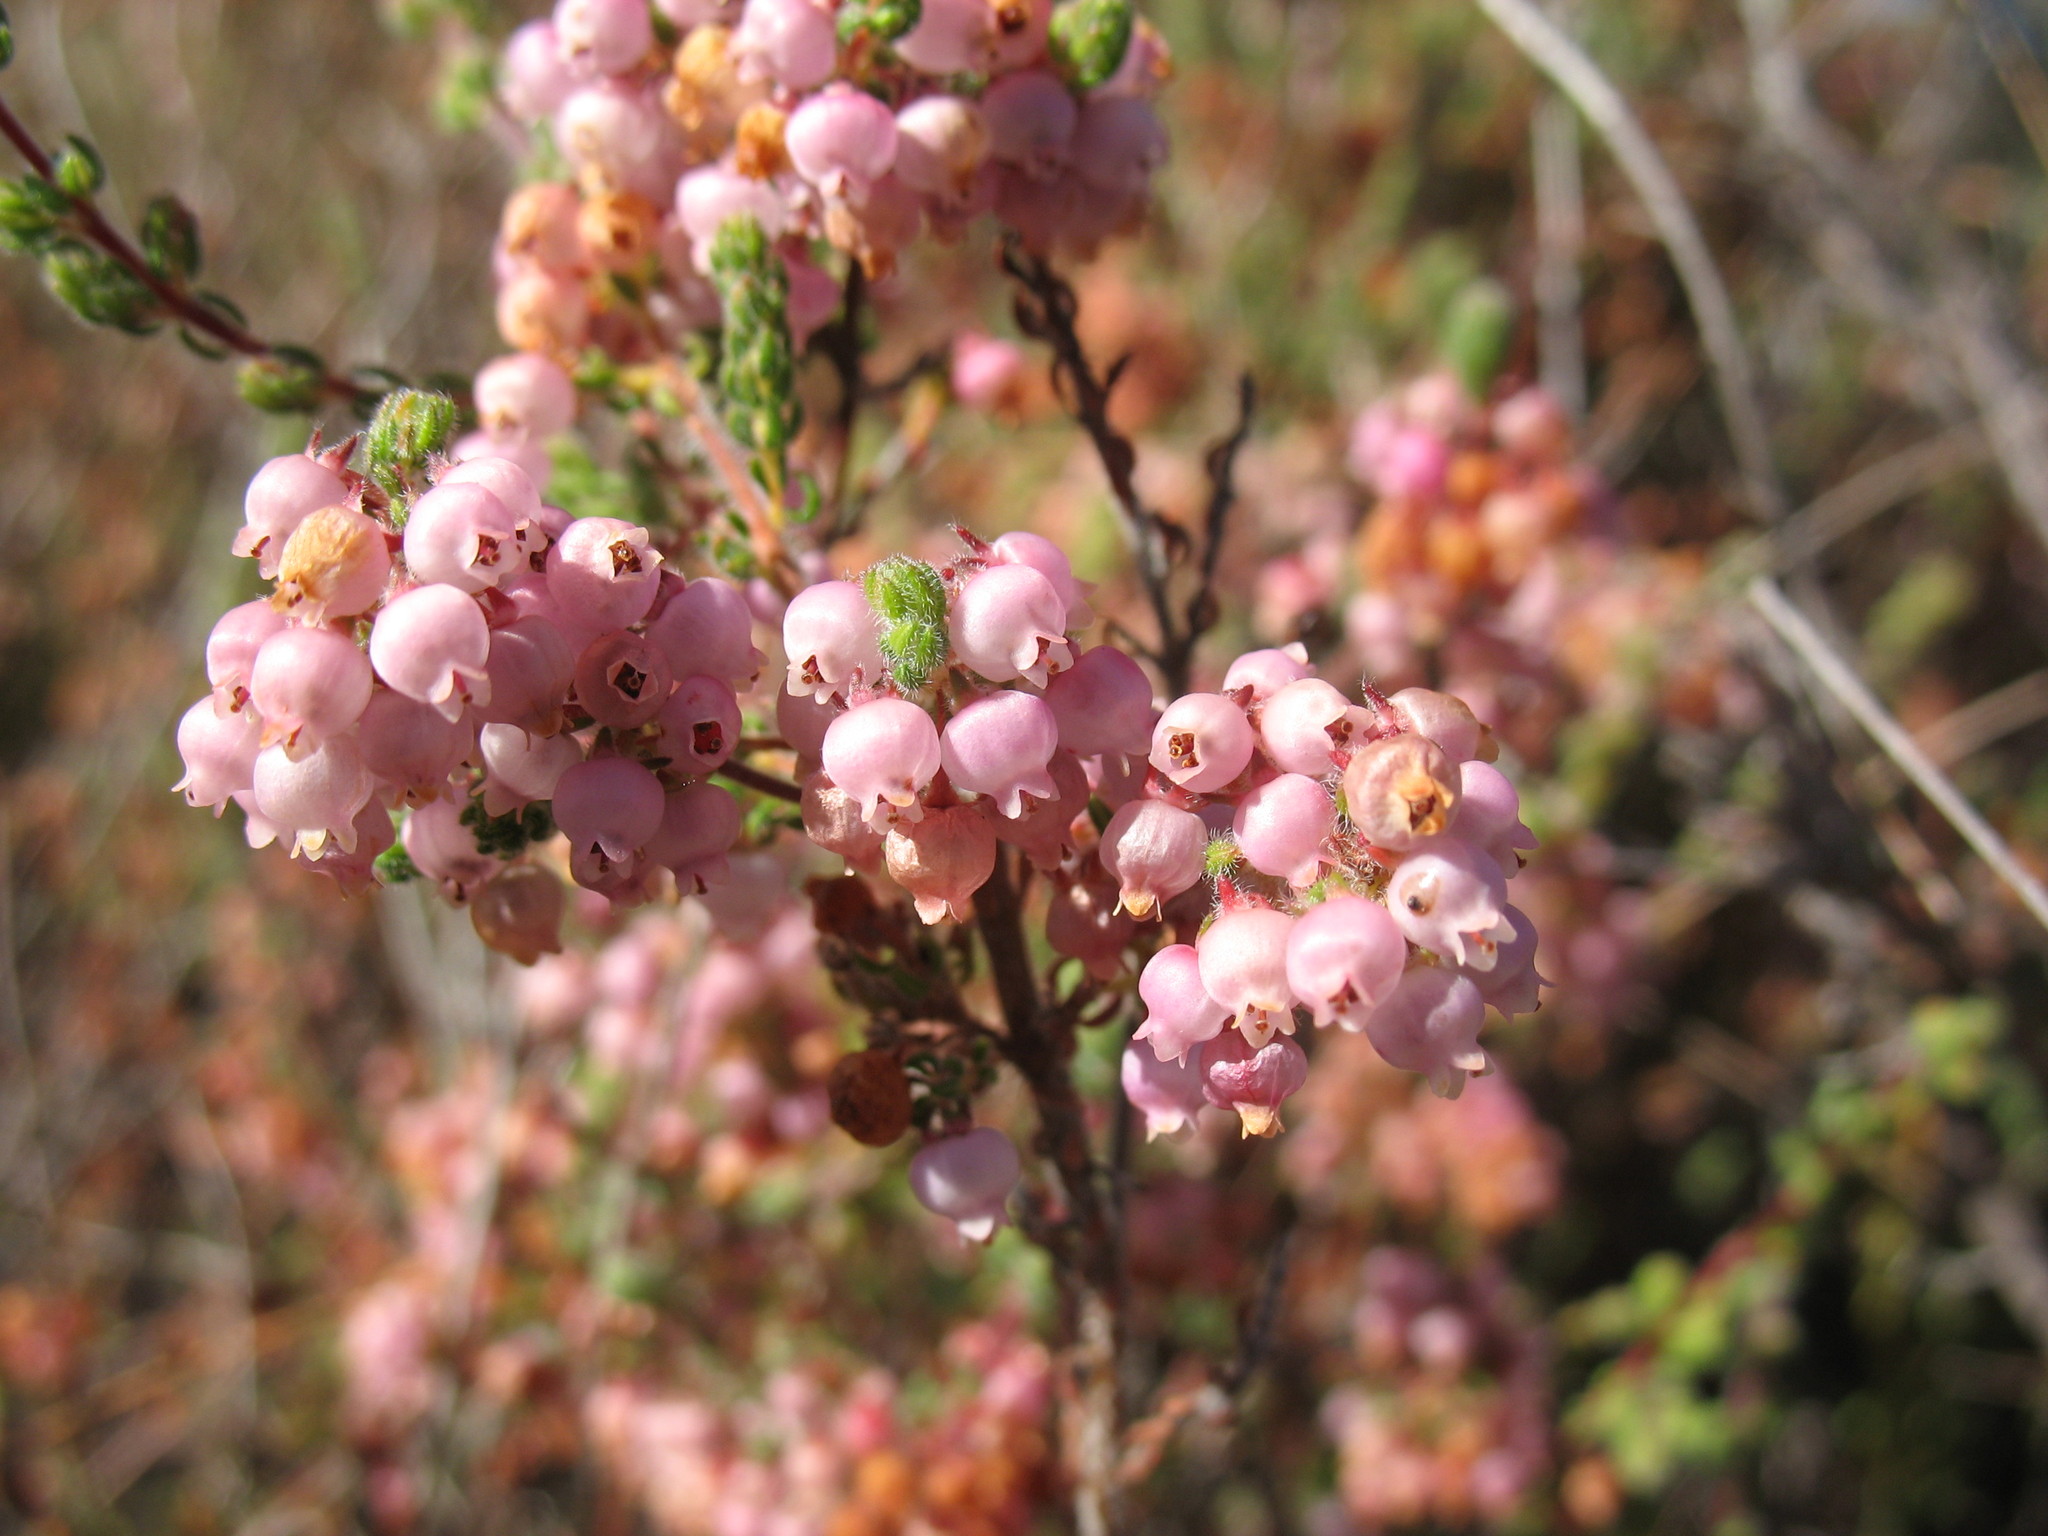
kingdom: Plantae
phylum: Tracheophyta
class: Magnoliopsida
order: Ericales
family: Ericaceae
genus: Erica
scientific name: Erica bergiana
